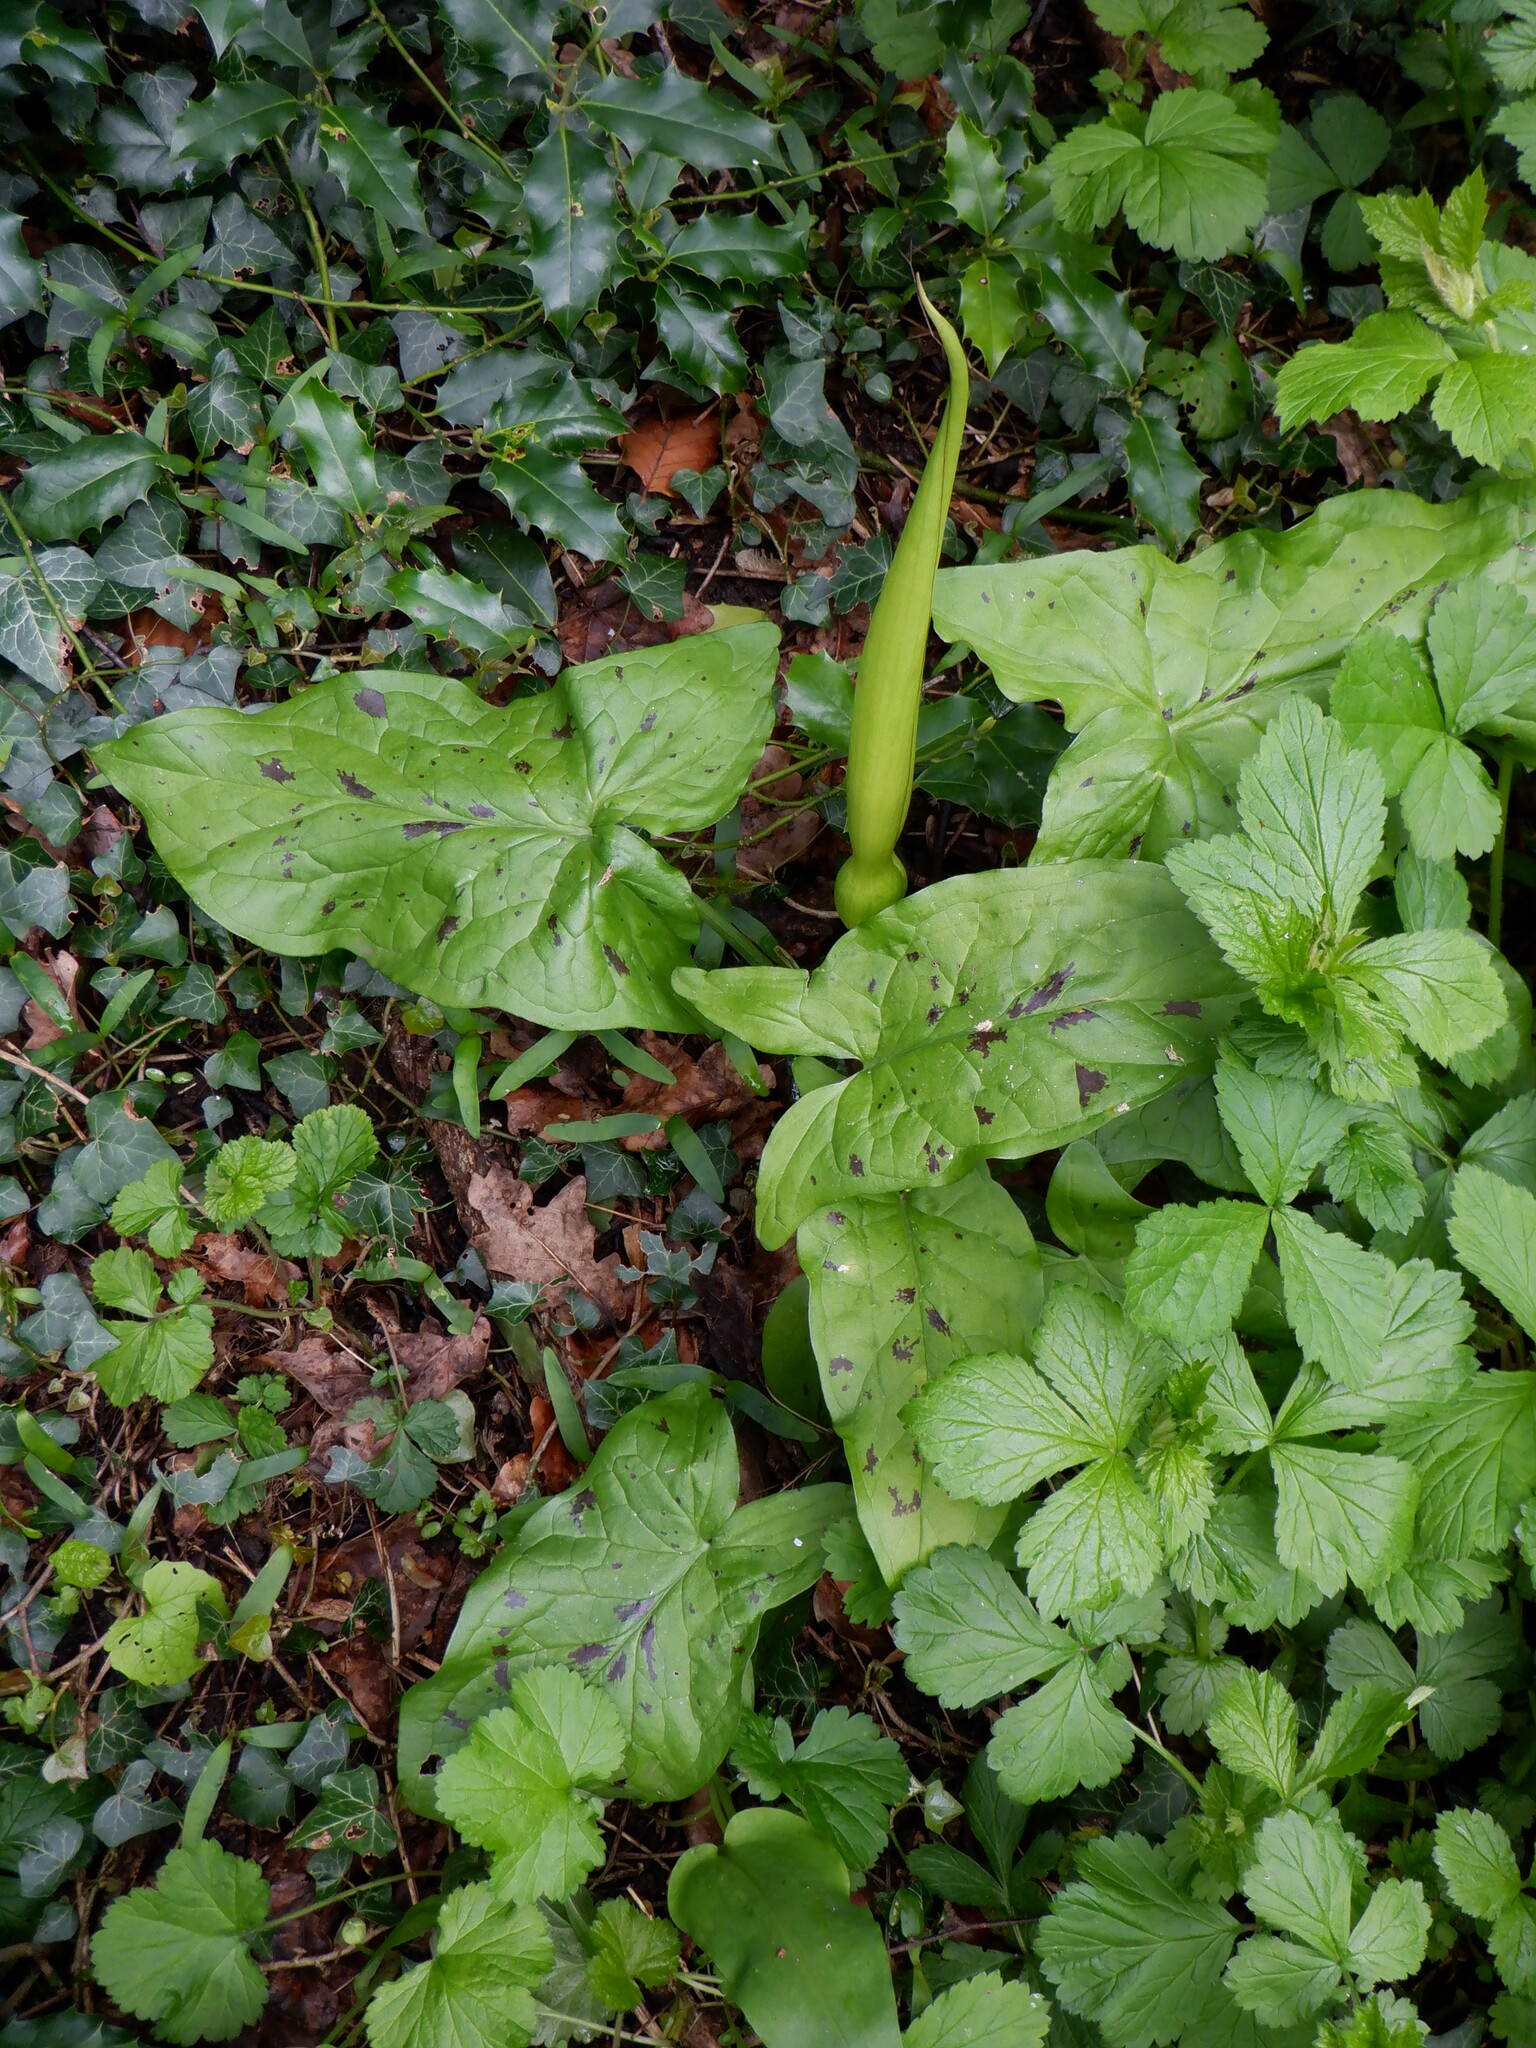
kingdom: Plantae
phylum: Tracheophyta
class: Liliopsida
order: Alismatales
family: Araceae
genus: Arum
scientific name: Arum maculatum
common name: Lords-and-ladies
